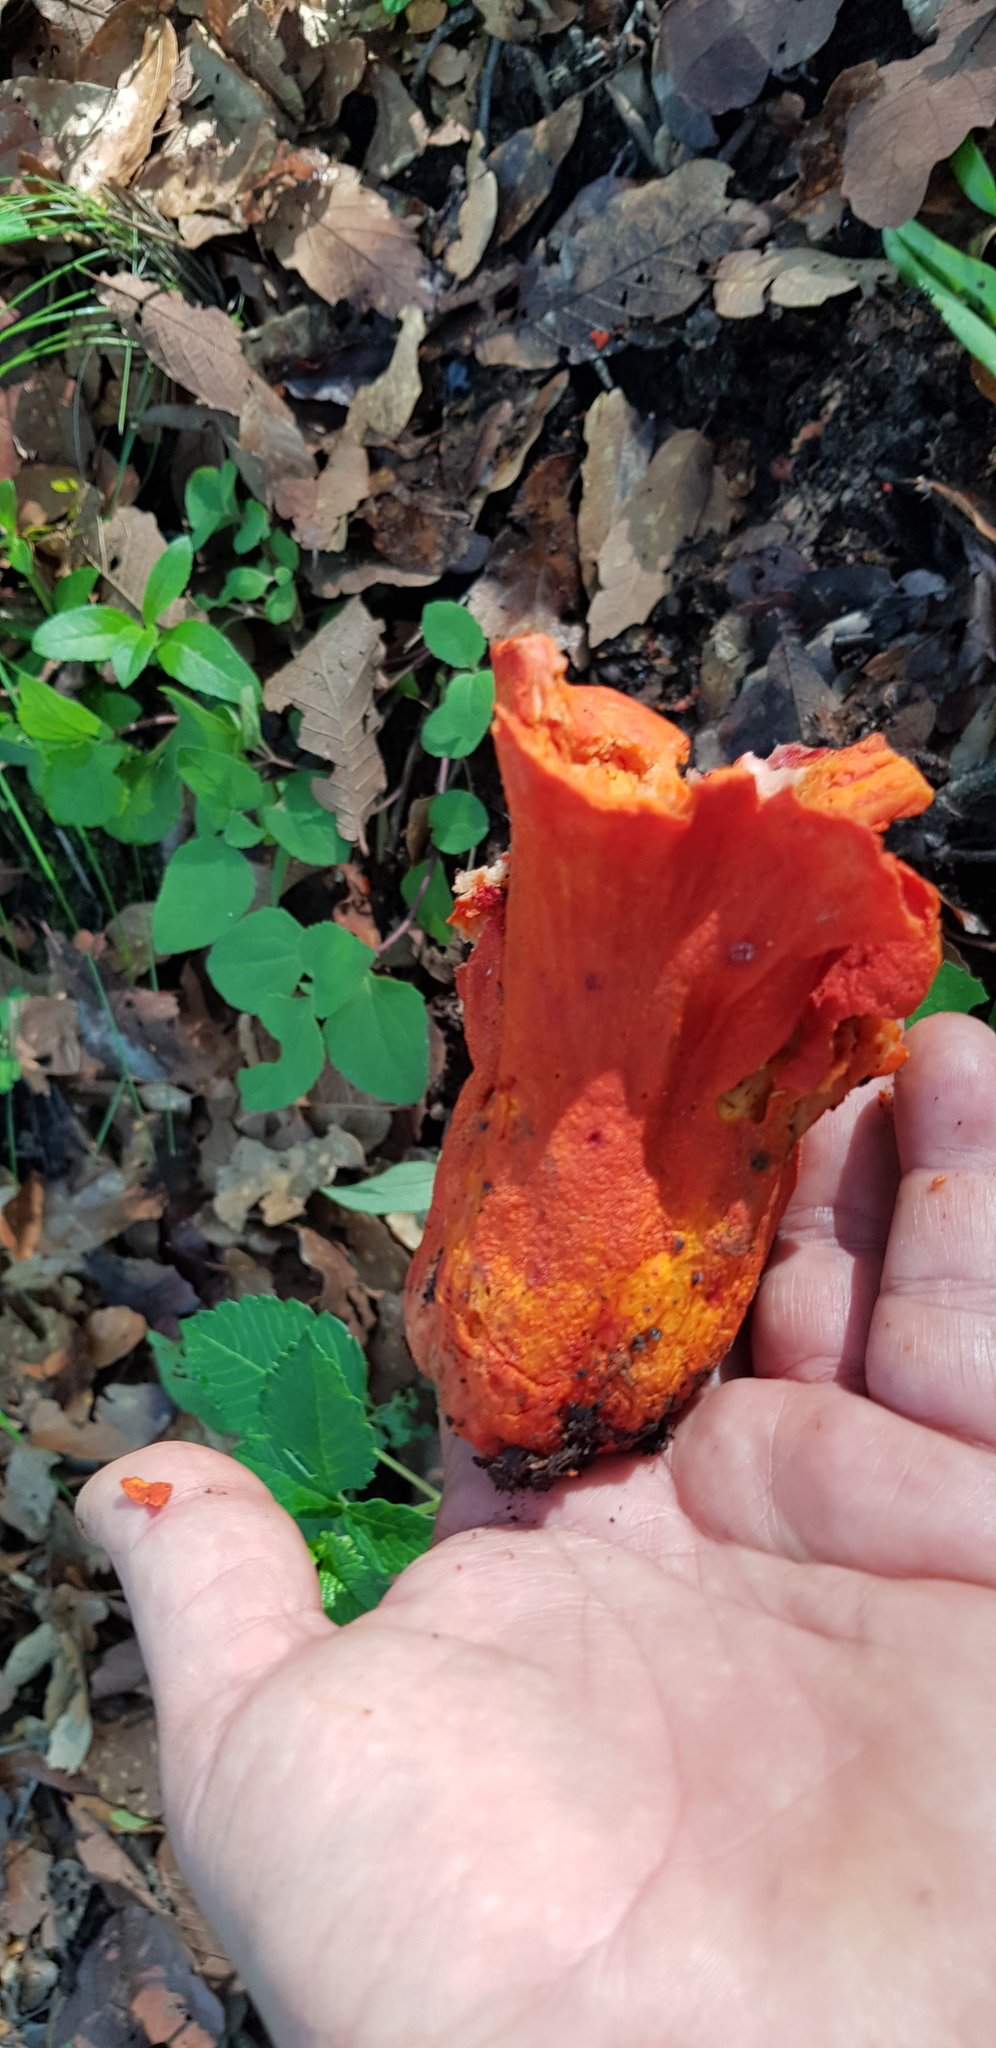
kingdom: Fungi
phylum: Ascomycota
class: Sordariomycetes
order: Hypocreales
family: Hypocreaceae
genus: Hypomyces
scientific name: Hypomyces lactifluorum
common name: Lobster mushroom
